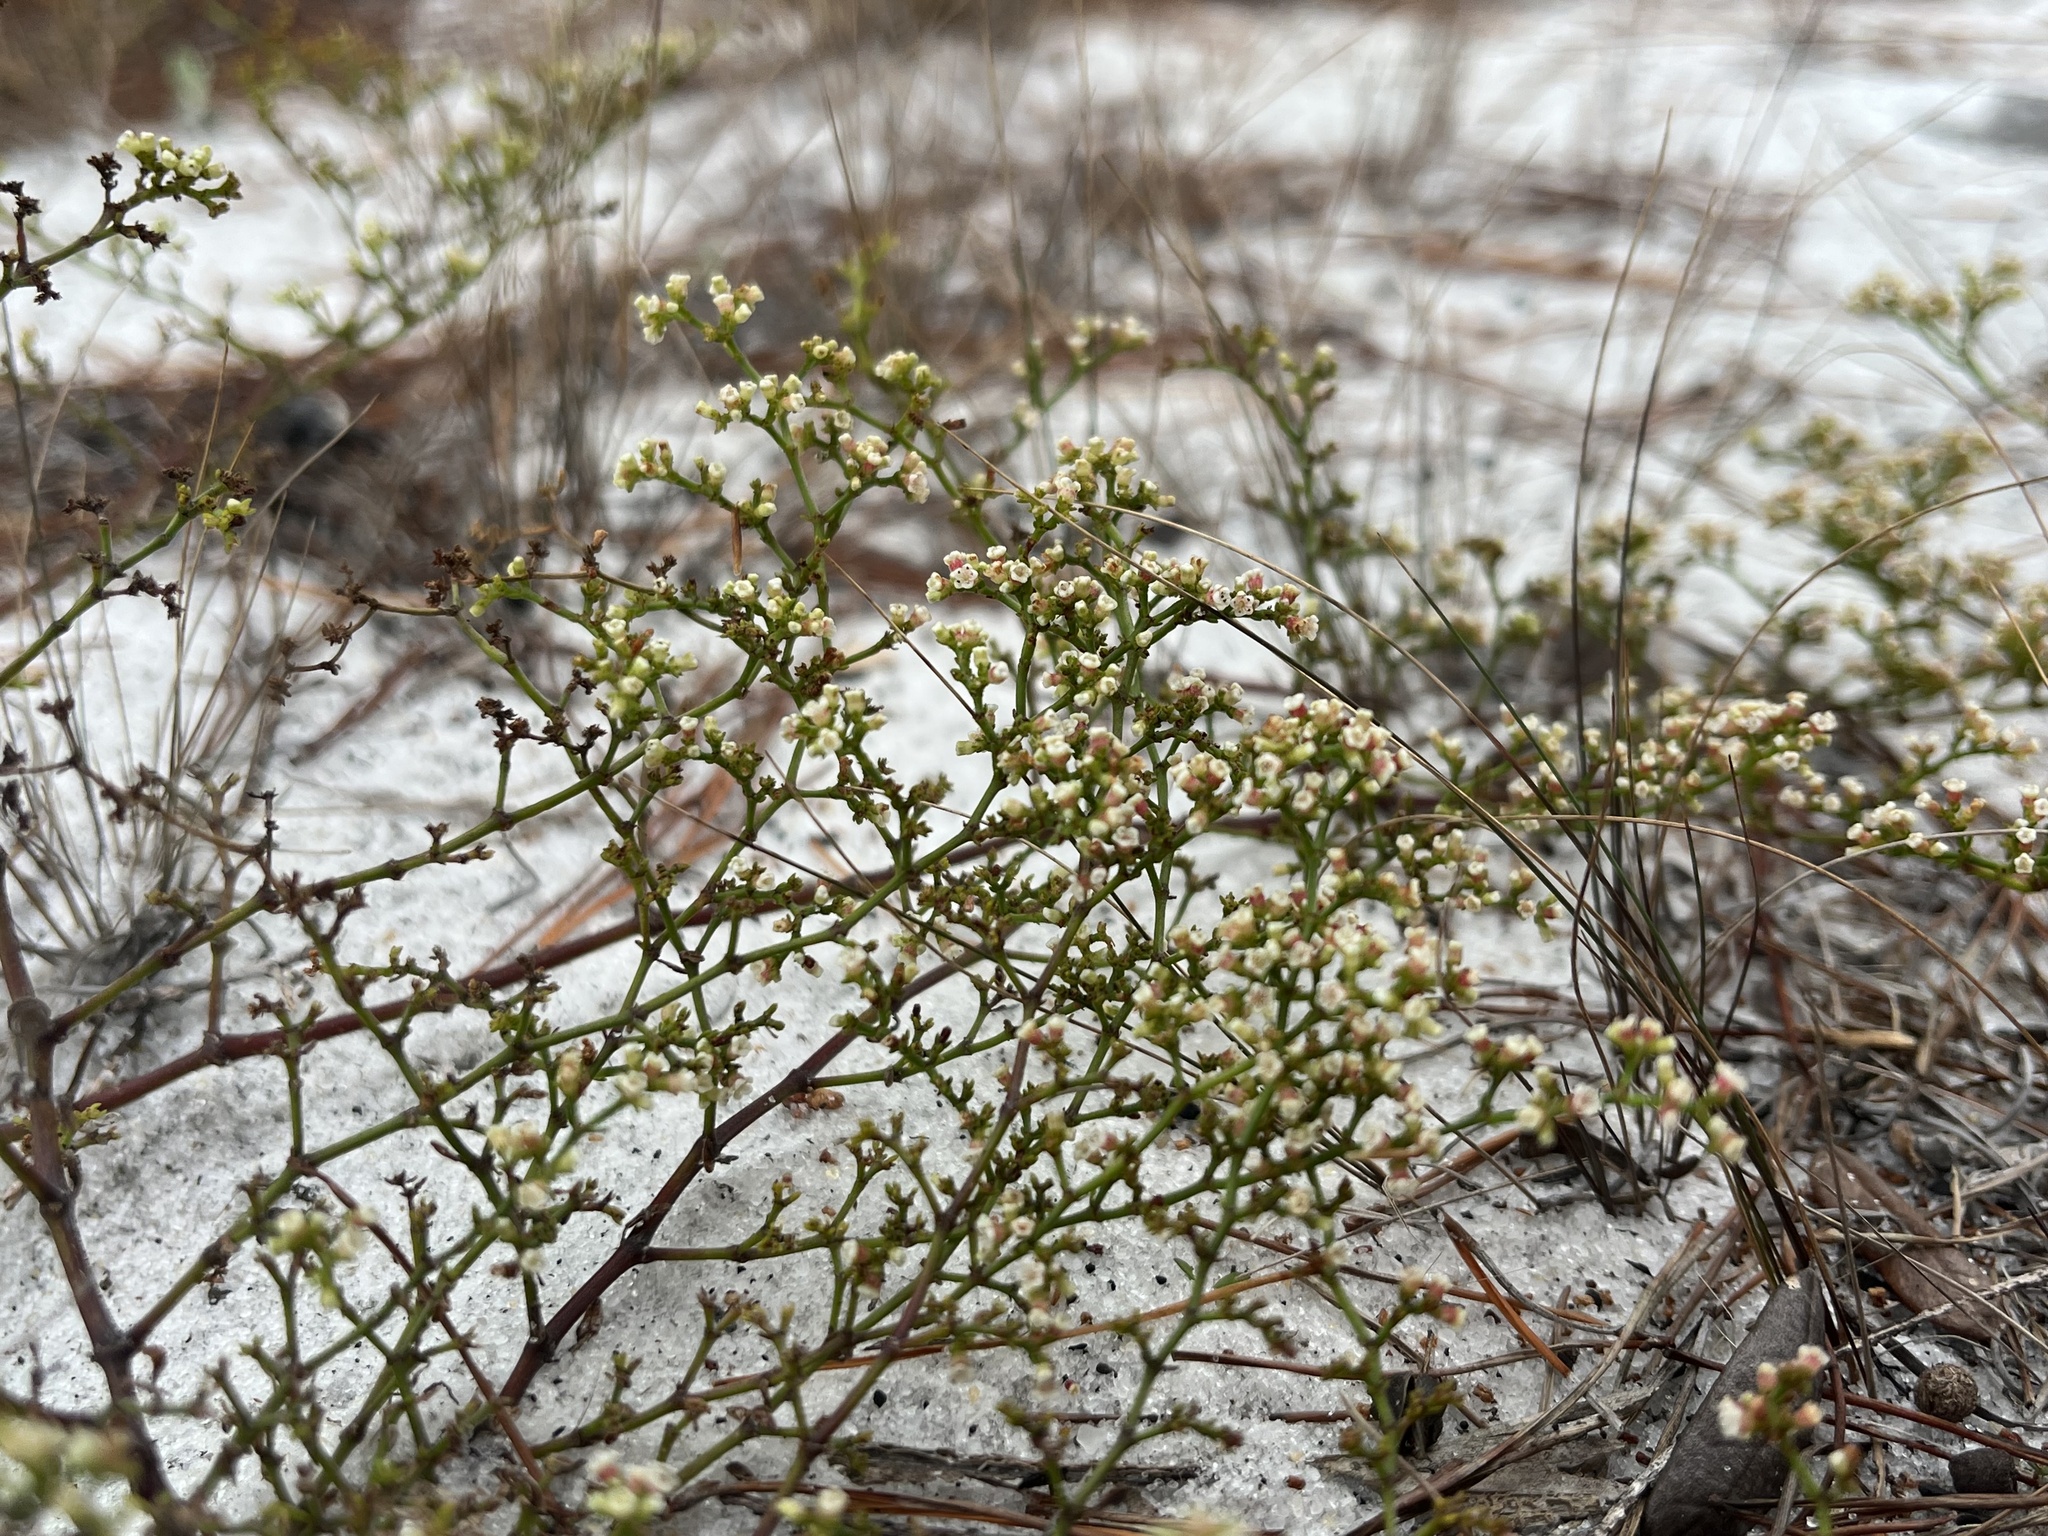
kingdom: Plantae
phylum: Tracheophyta
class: Magnoliopsida
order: Caryophyllales
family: Caryophyllaceae
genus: Paronychia
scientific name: Paronychia americana
